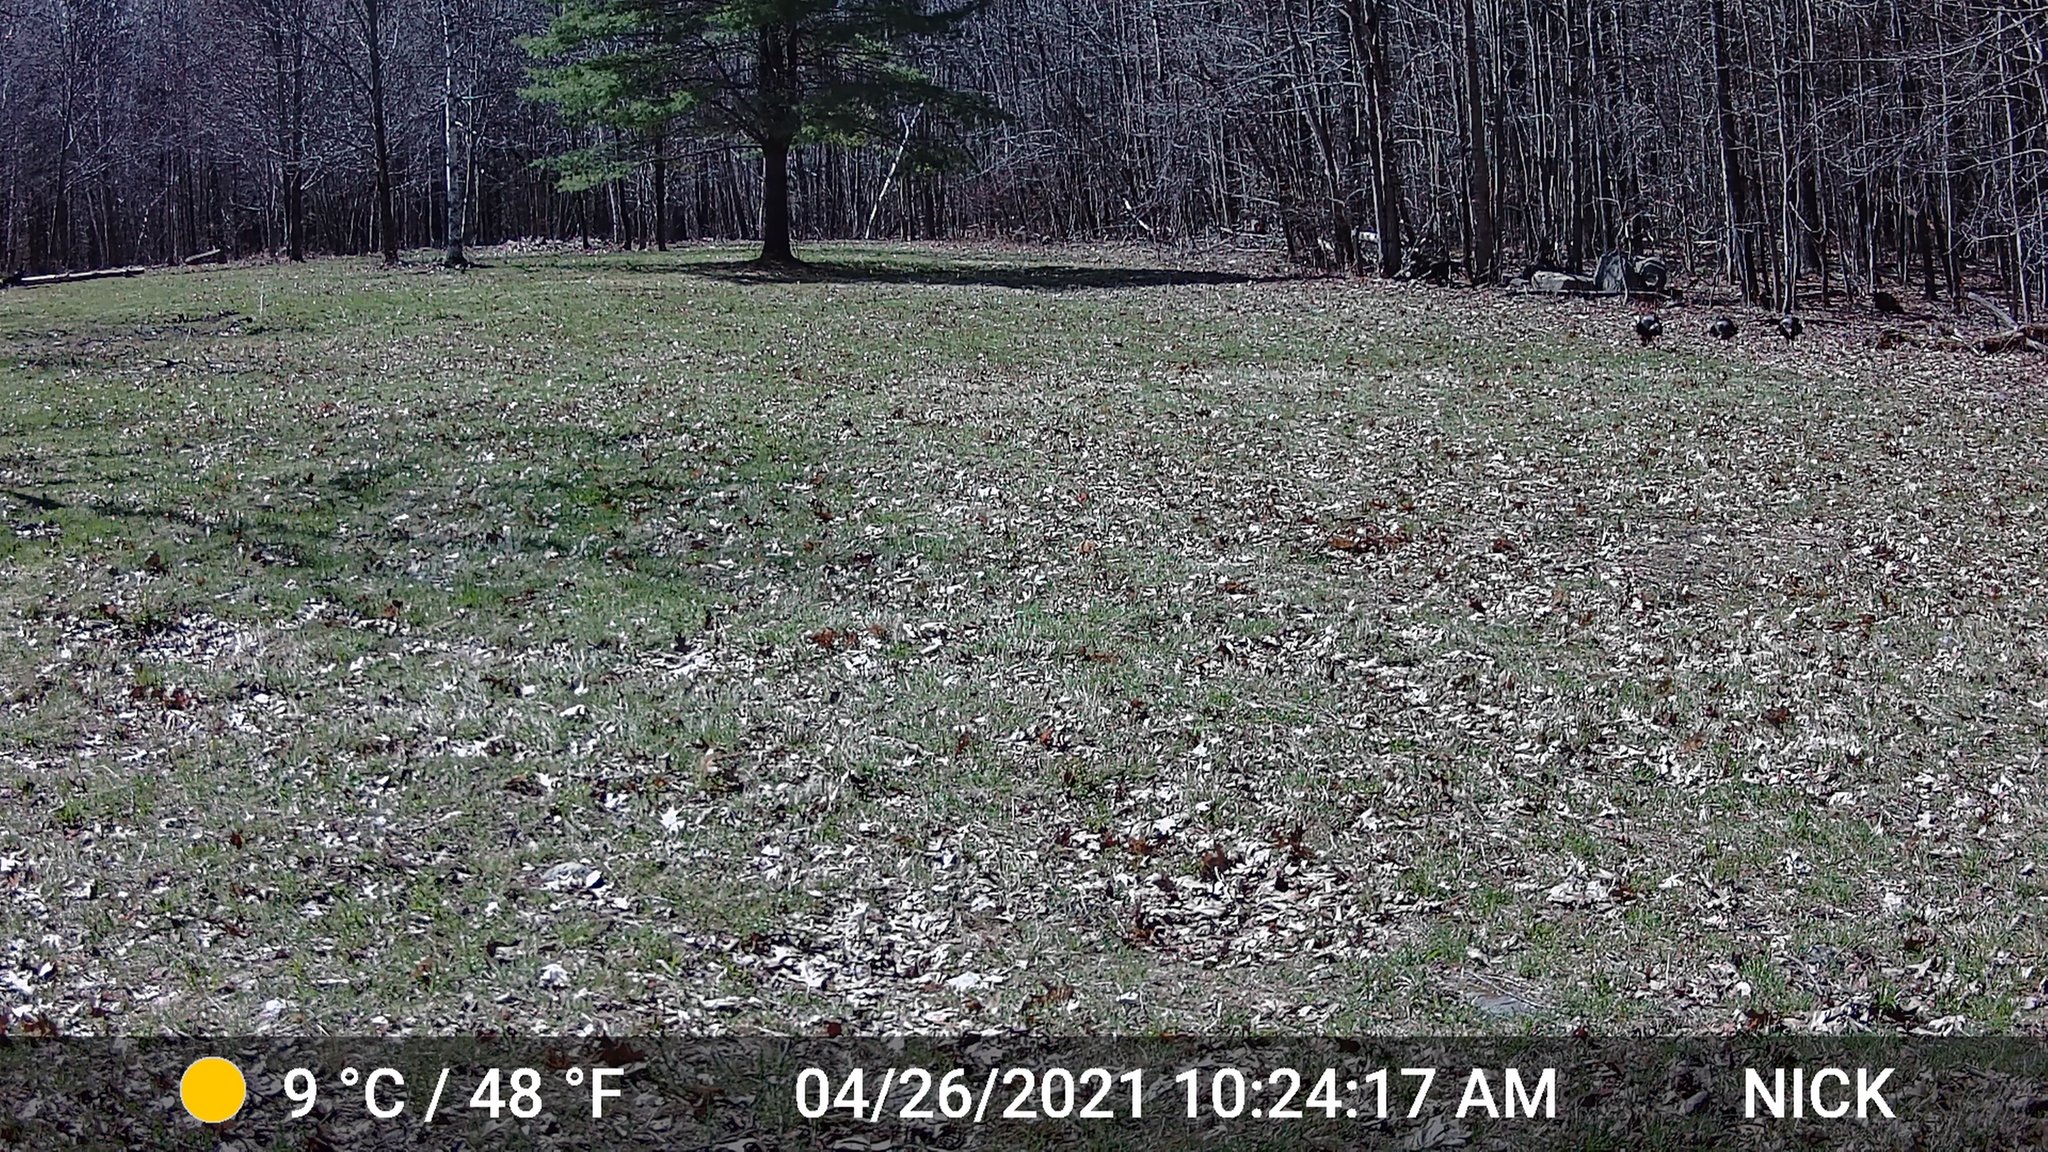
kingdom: Animalia
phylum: Chordata
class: Aves
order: Galliformes
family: Phasianidae
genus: Meleagris
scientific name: Meleagris gallopavo
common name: Wild turkey
